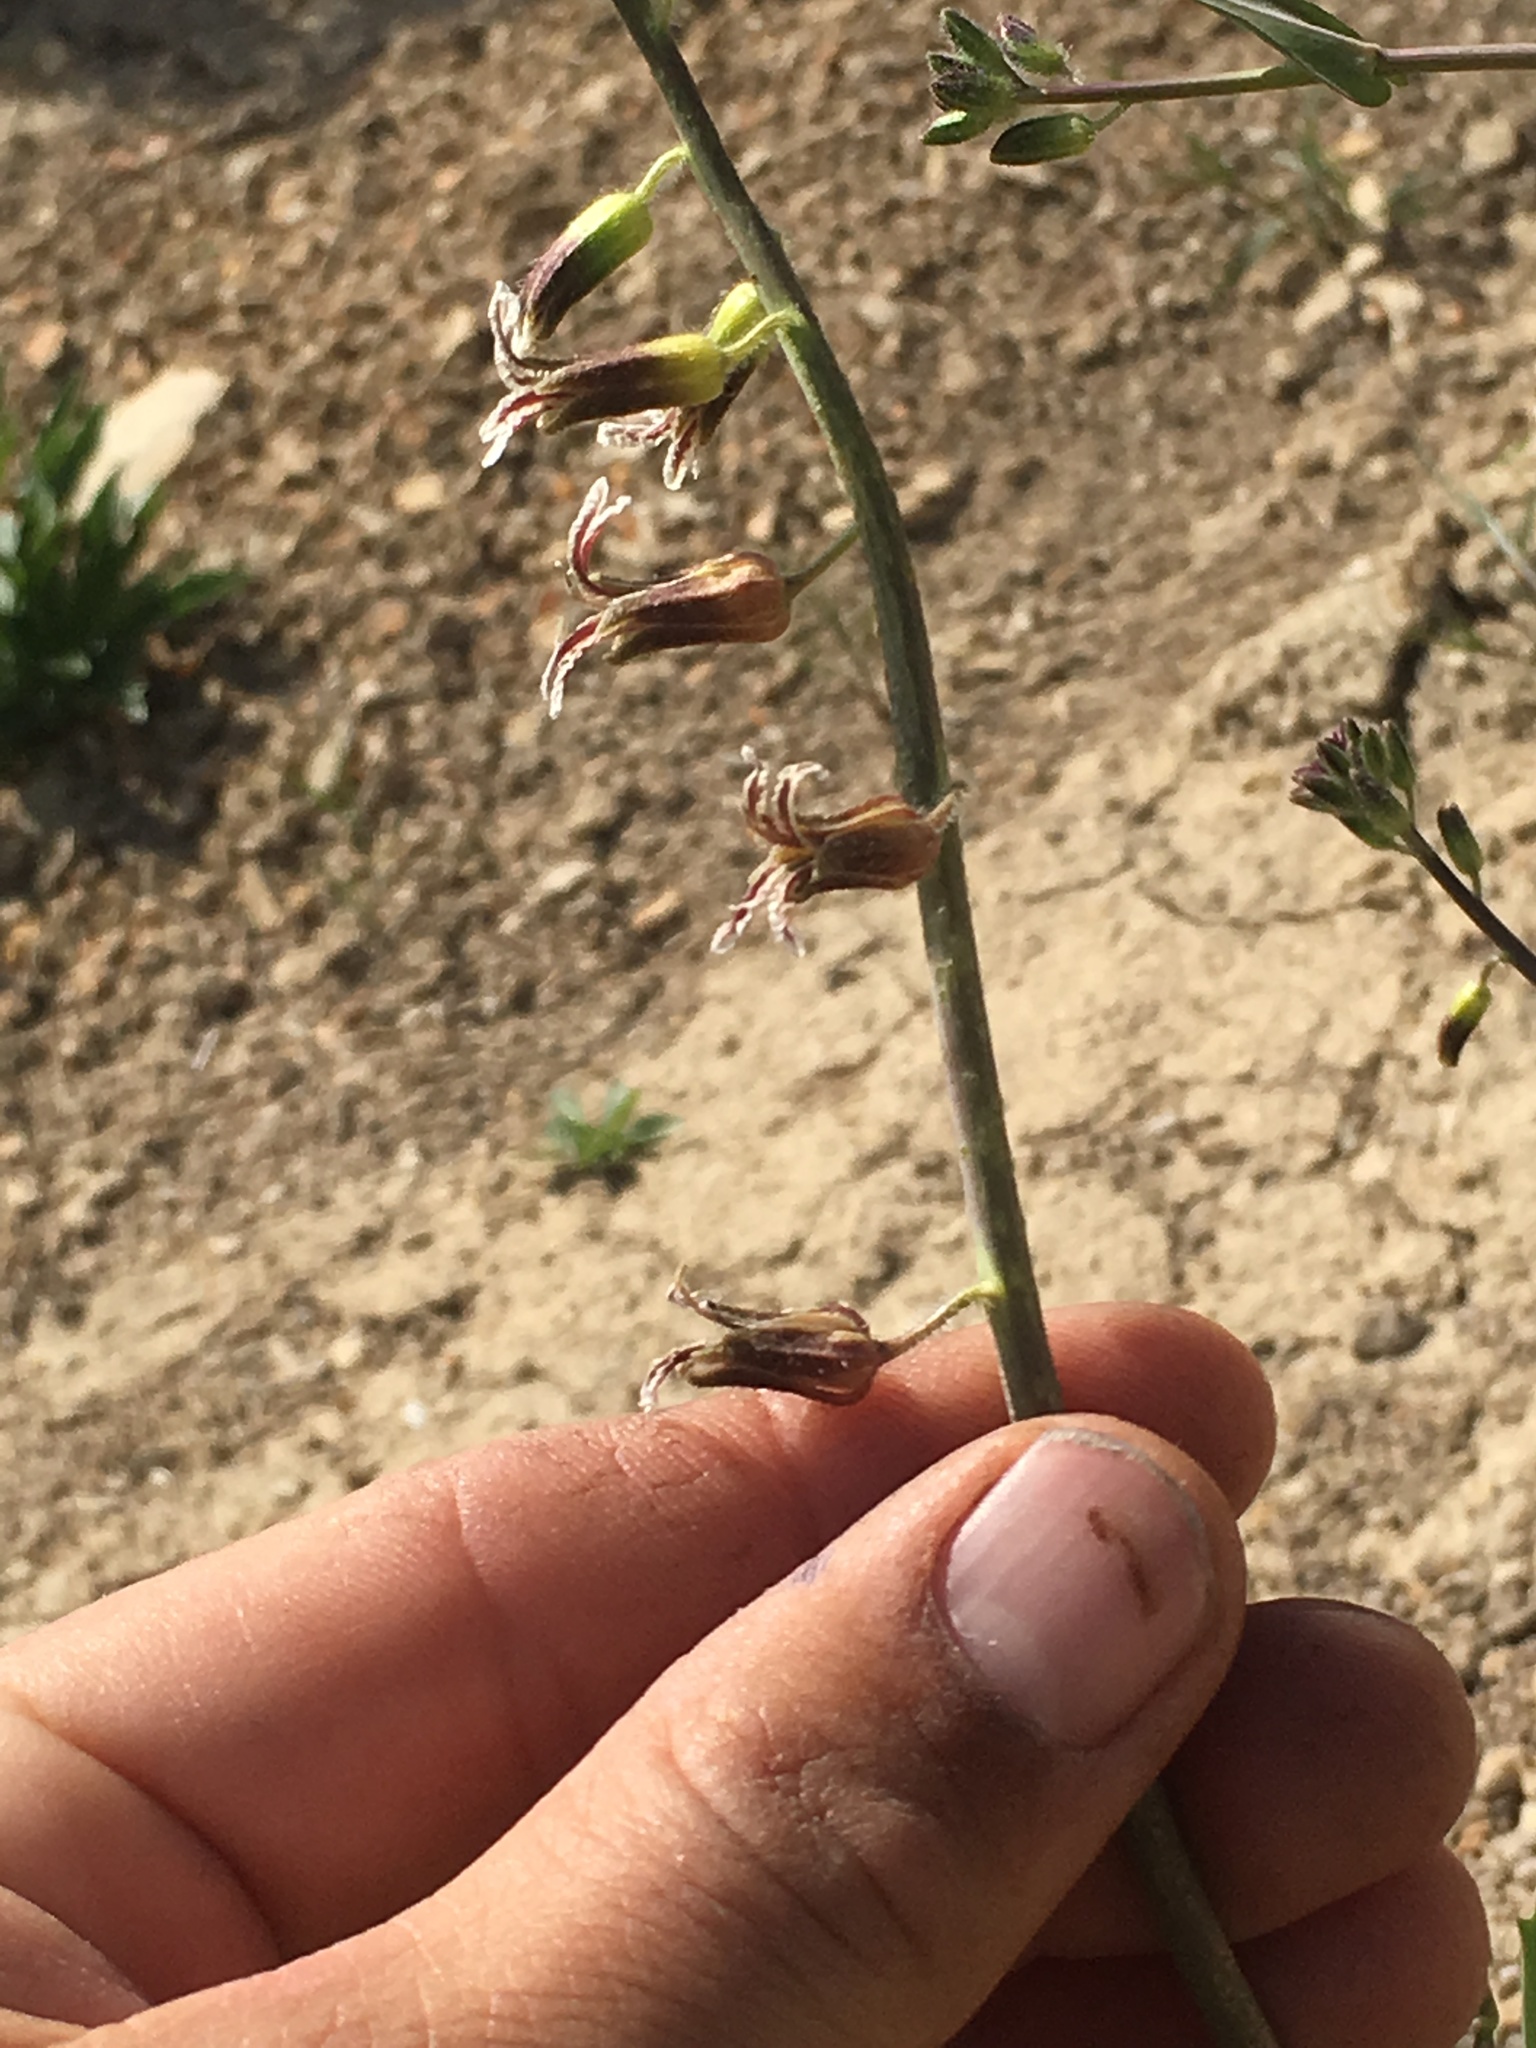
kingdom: Plantae
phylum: Tracheophyta
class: Magnoliopsida
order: Brassicales
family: Brassicaceae
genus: Streptanthus
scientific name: Streptanthus coulteri
